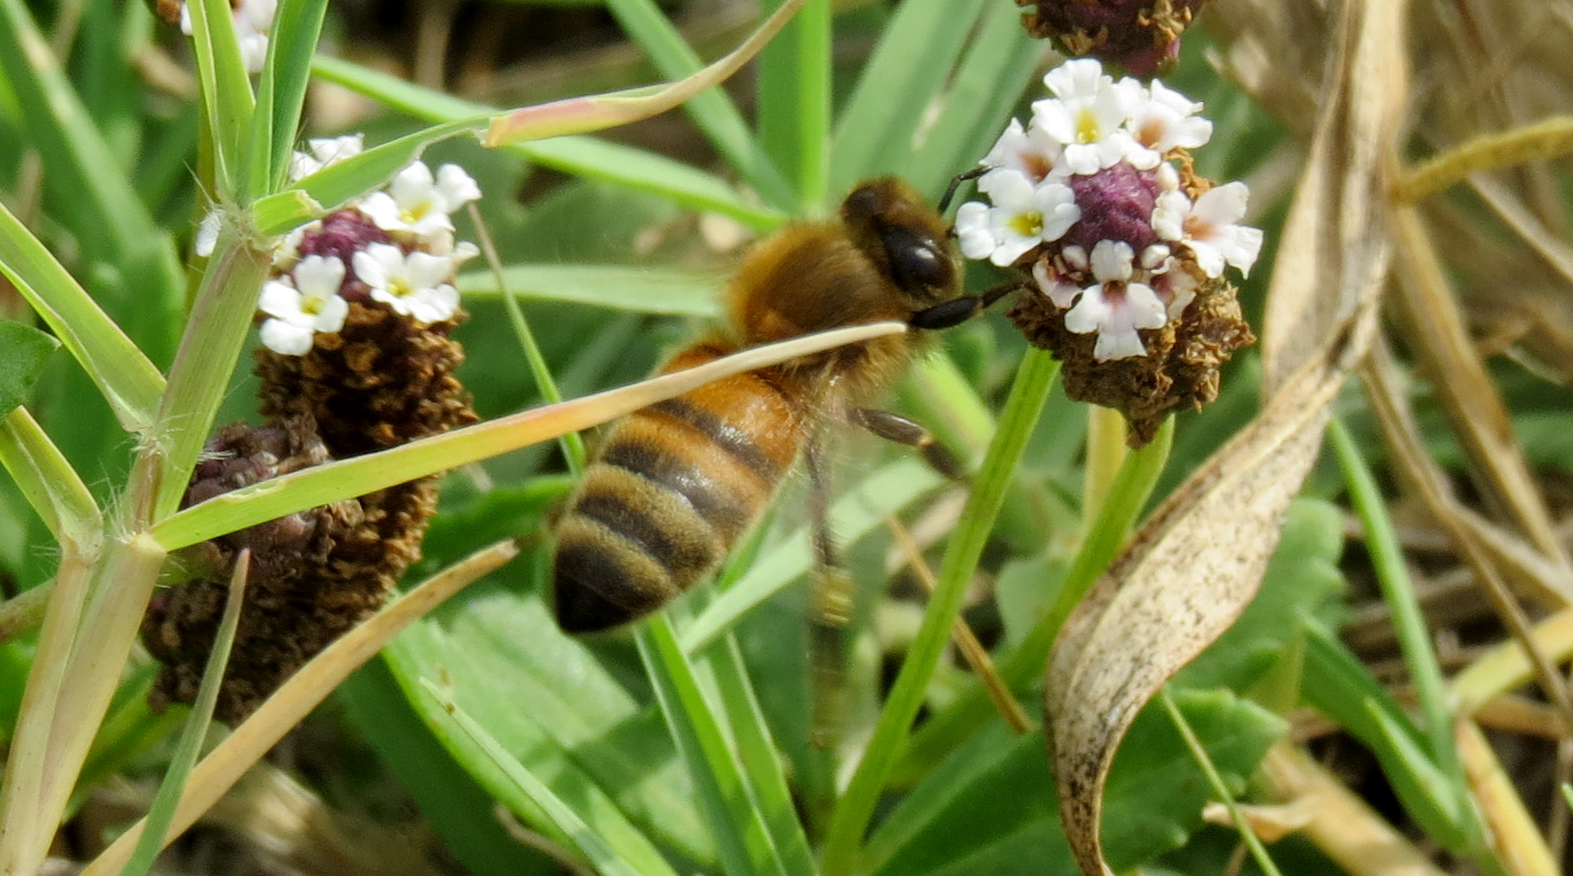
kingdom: Animalia
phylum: Arthropoda
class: Insecta
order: Hymenoptera
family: Apidae
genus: Apis
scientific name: Apis mellifera
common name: Honey bee
